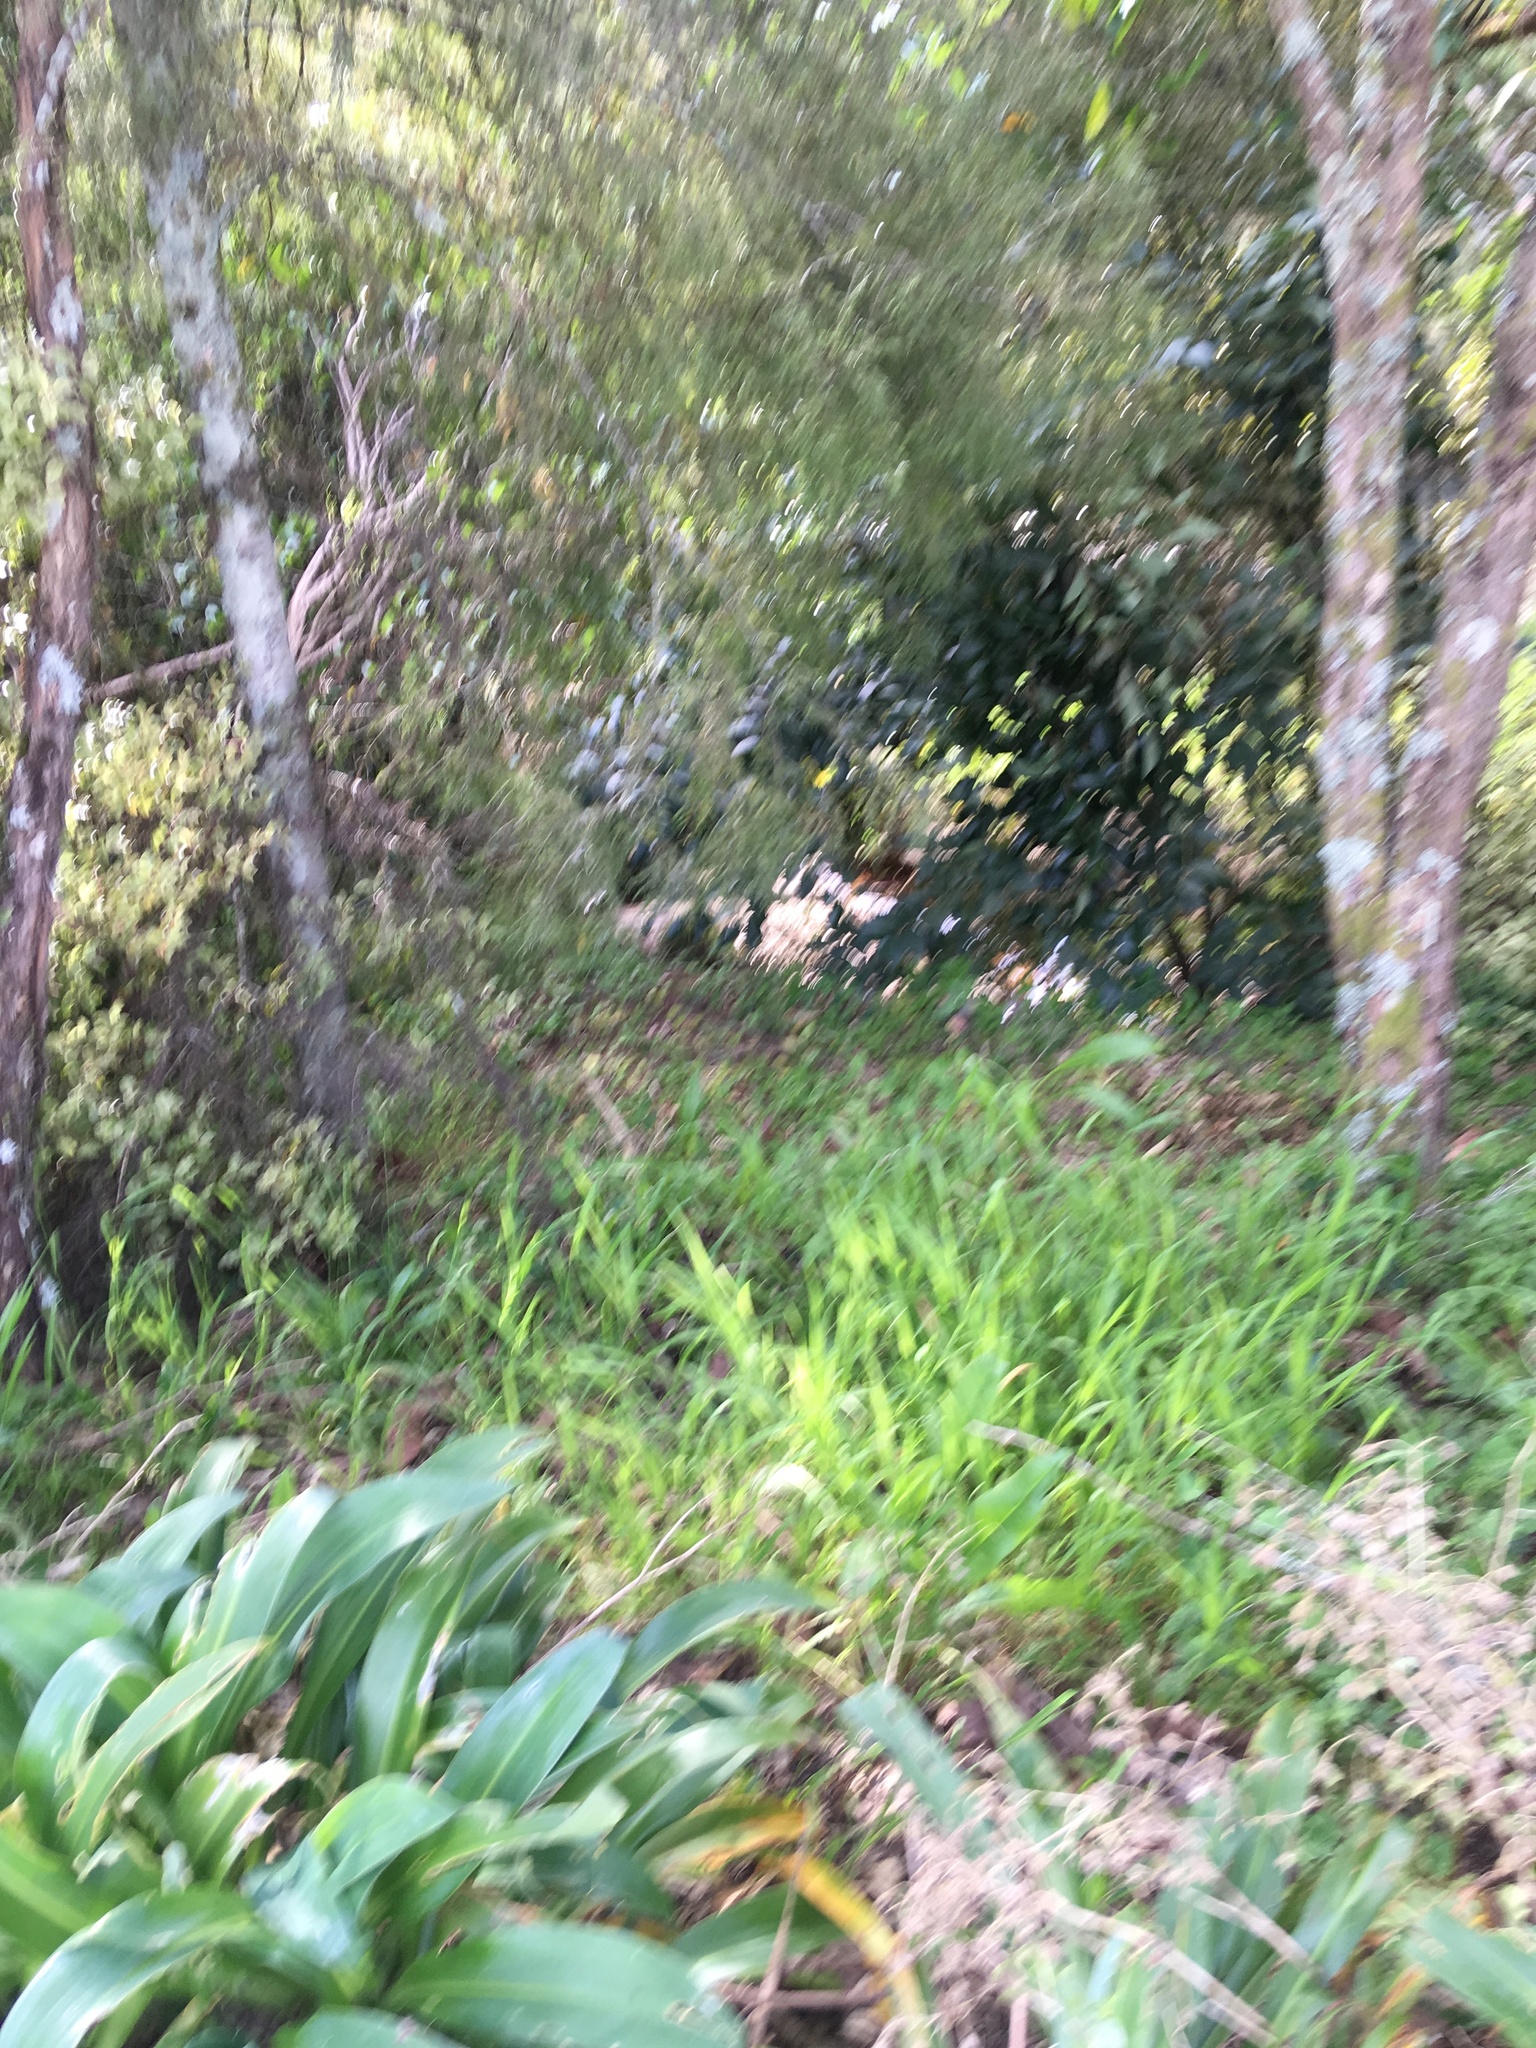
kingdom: Plantae
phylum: Tracheophyta
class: Liliopsida
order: Asparagales
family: Asparagaceae
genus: Arthropodium
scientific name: Arthropodium cirratum
